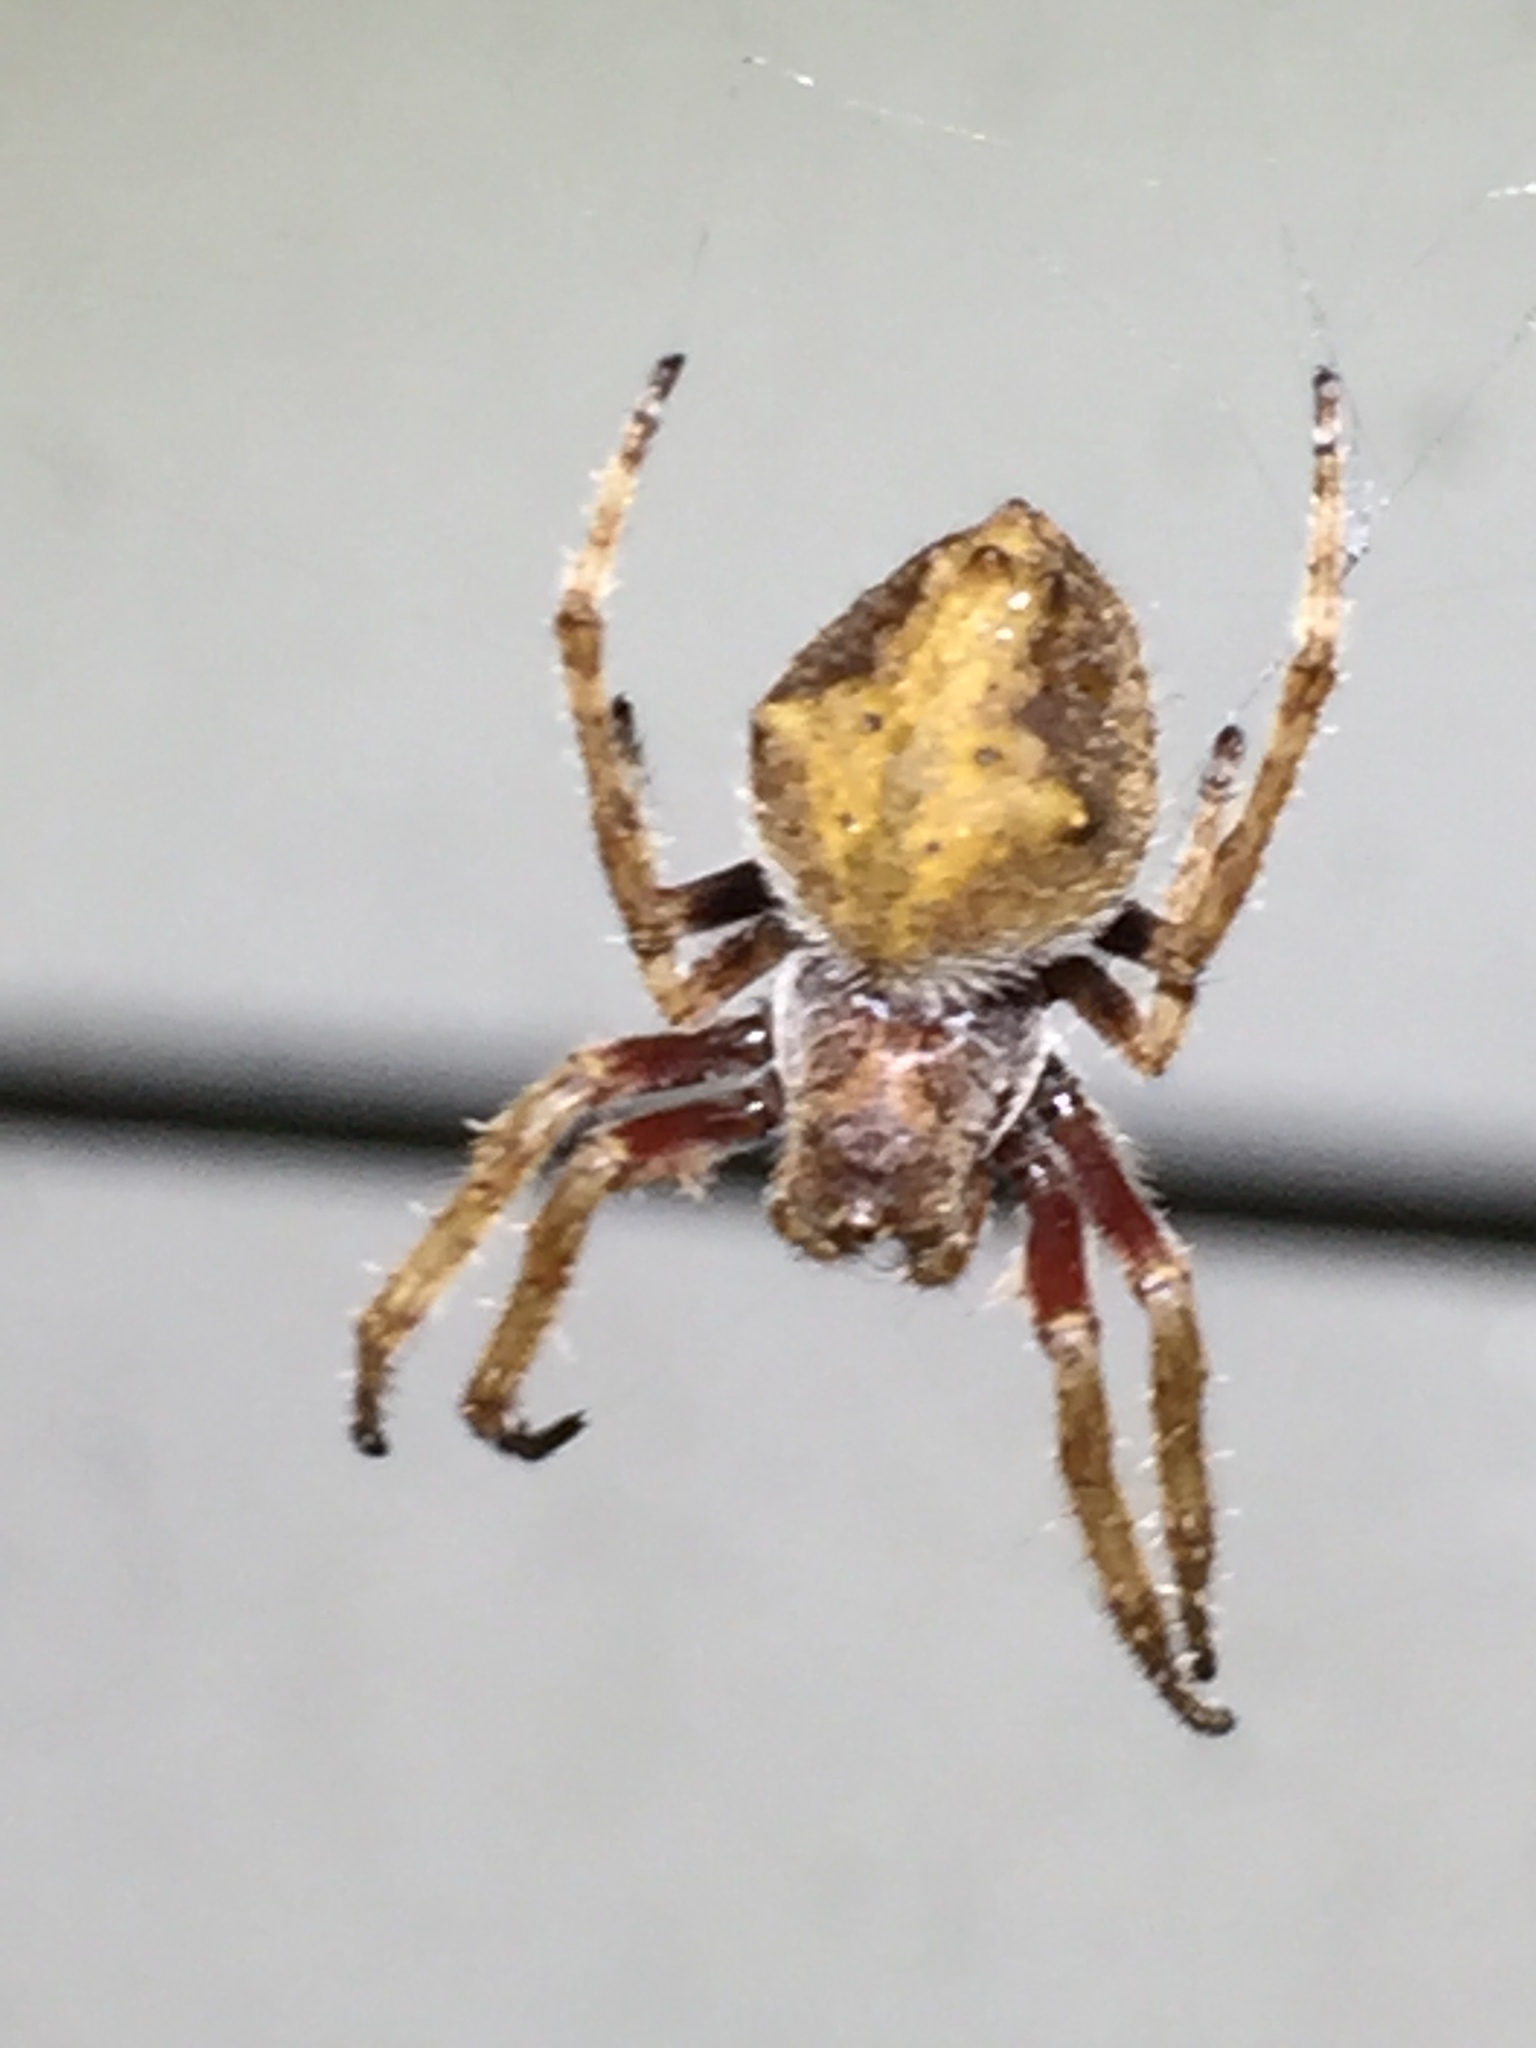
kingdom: Animalia
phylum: Arthropoda
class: Arachnida
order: Araneae
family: Araneidae
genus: Eriophora
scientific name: Eriophora pustulosa
